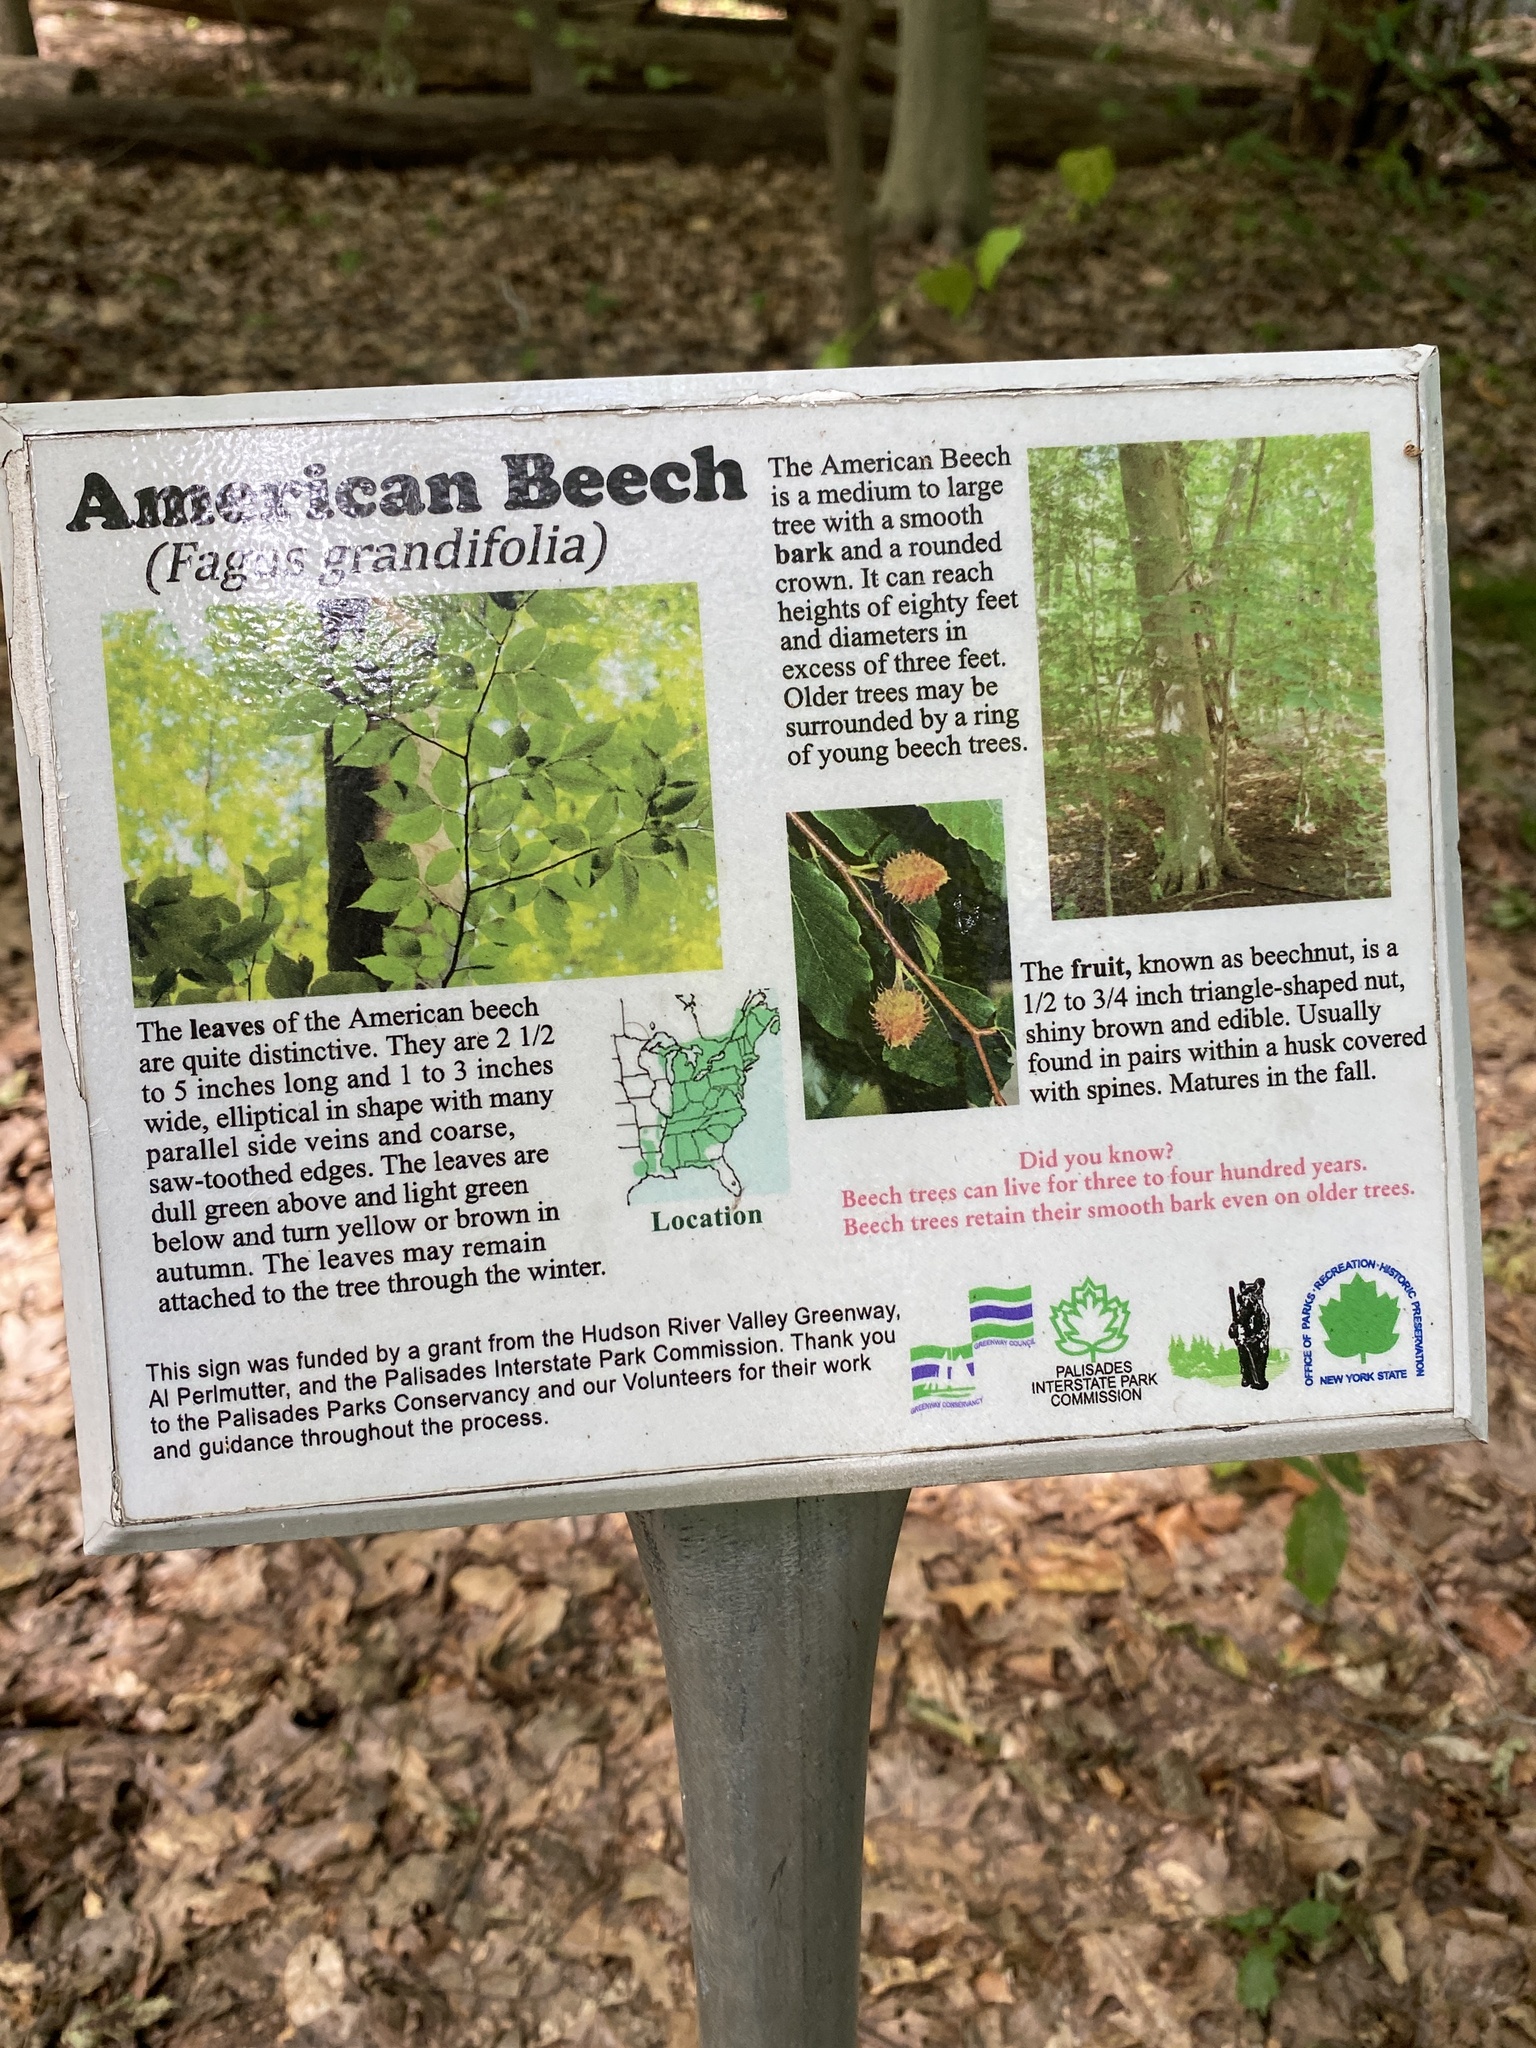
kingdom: Plantae
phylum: Tracheophyta
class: Magnoliopsida
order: Fagales
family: Fagaceae
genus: Fagus
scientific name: Fagus grandifolia
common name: American beech
